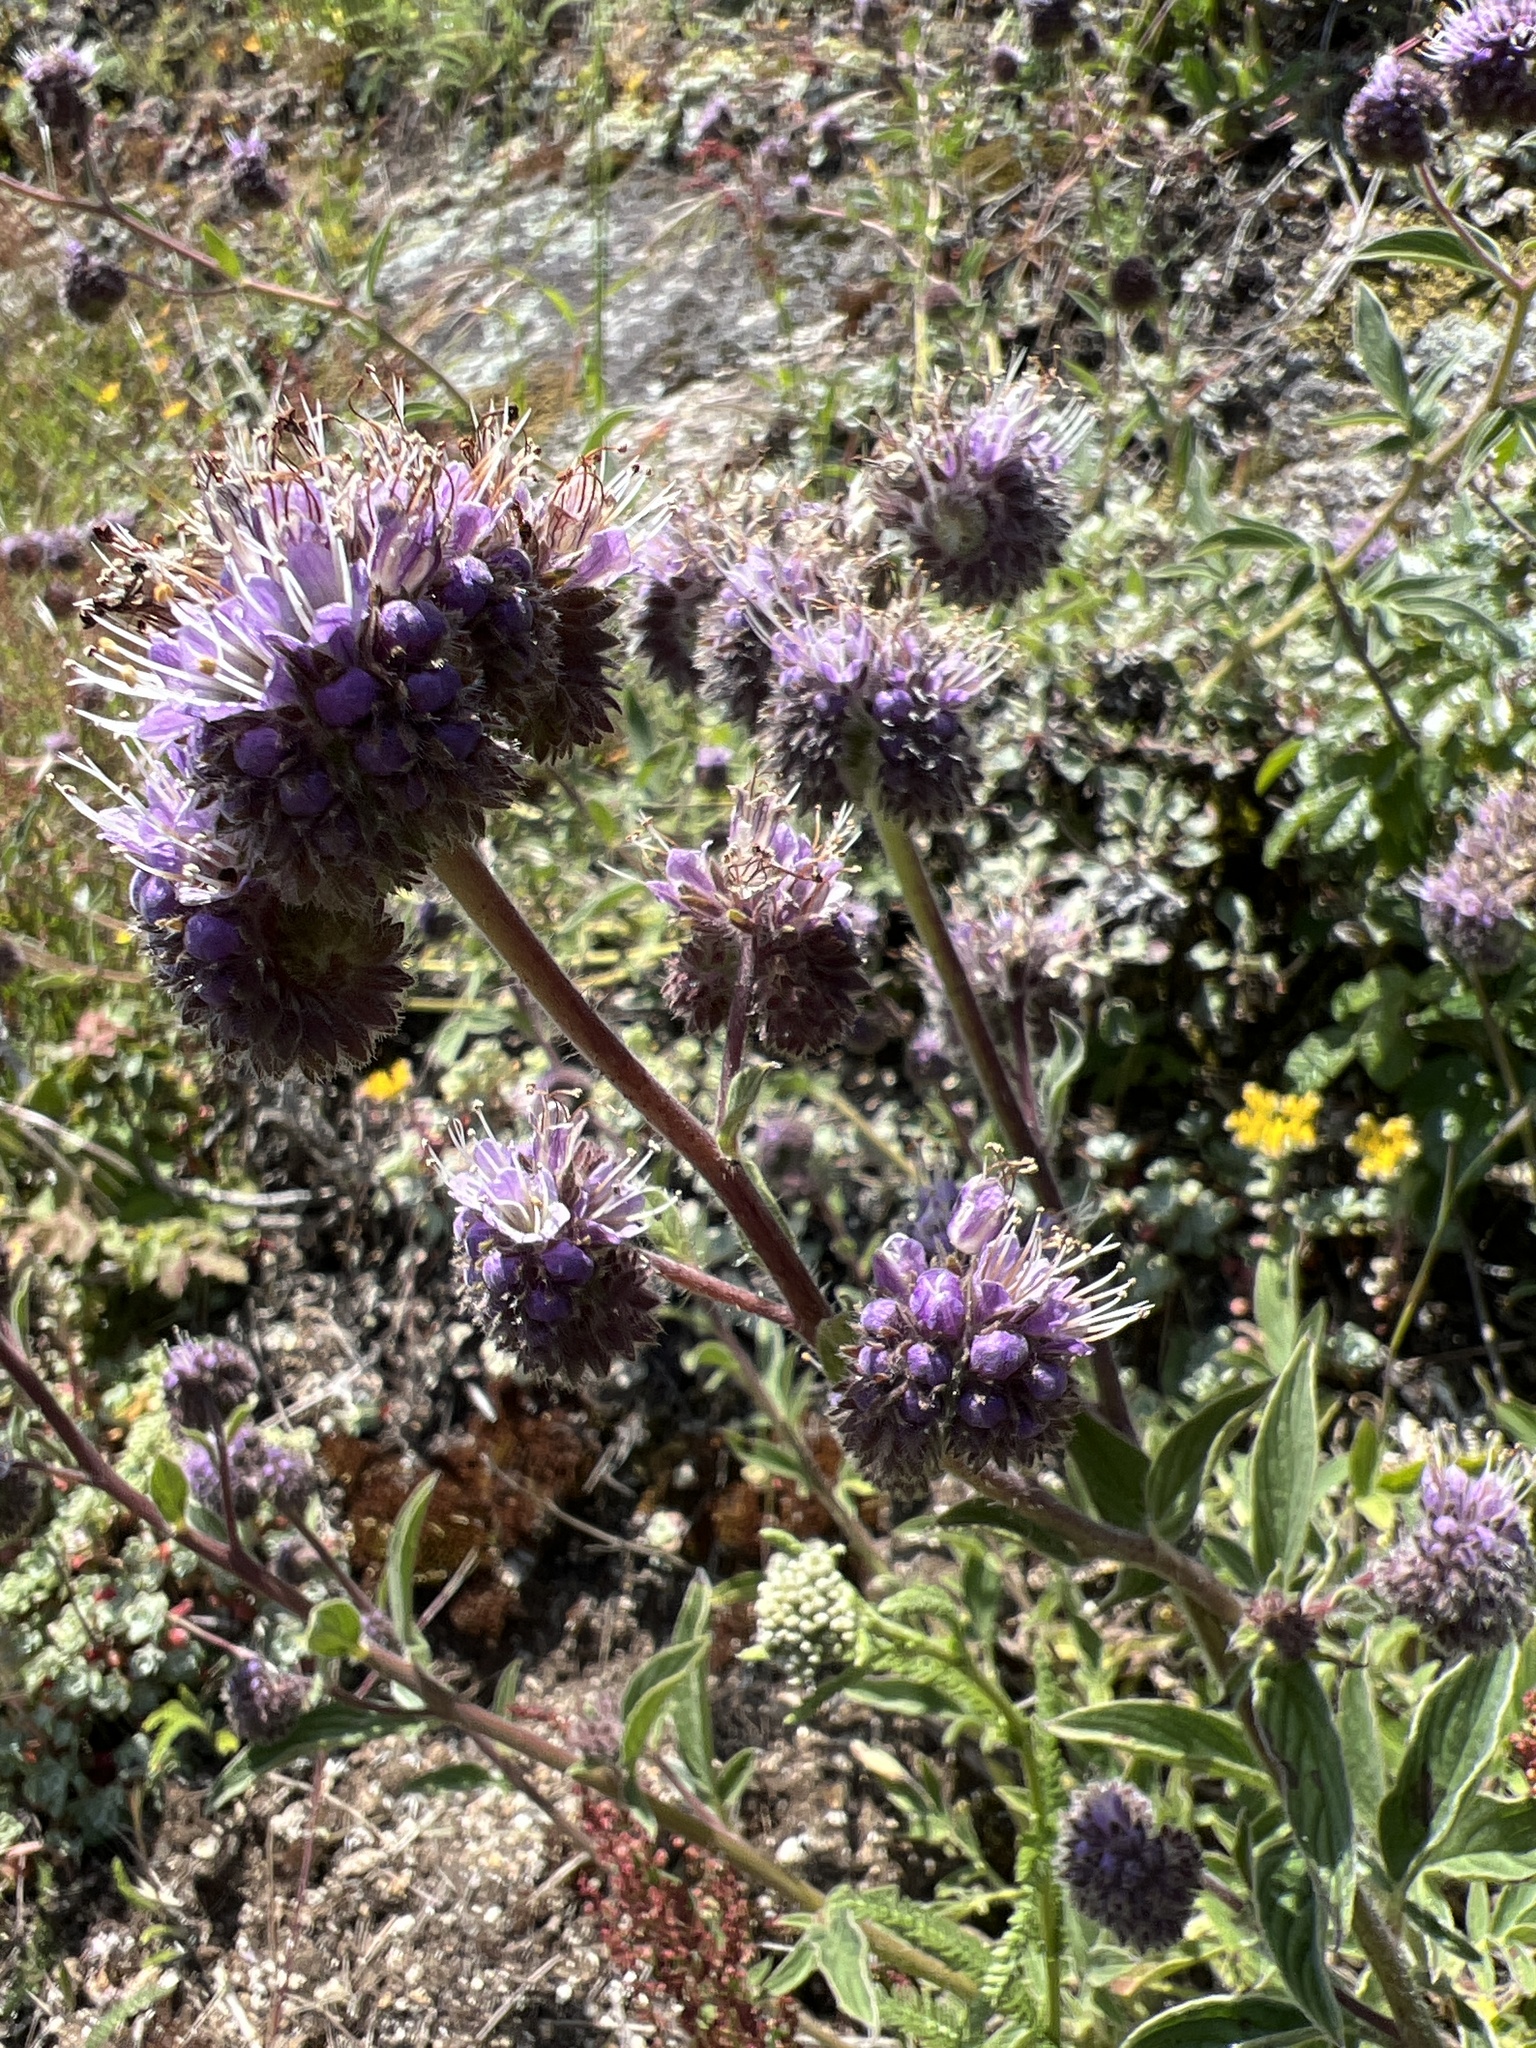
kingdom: Plantae
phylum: Tracheophyta
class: Magnoliopsida
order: Boraginales
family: Hydrophyllaceae
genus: Phacelia
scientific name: Phacelia californica
